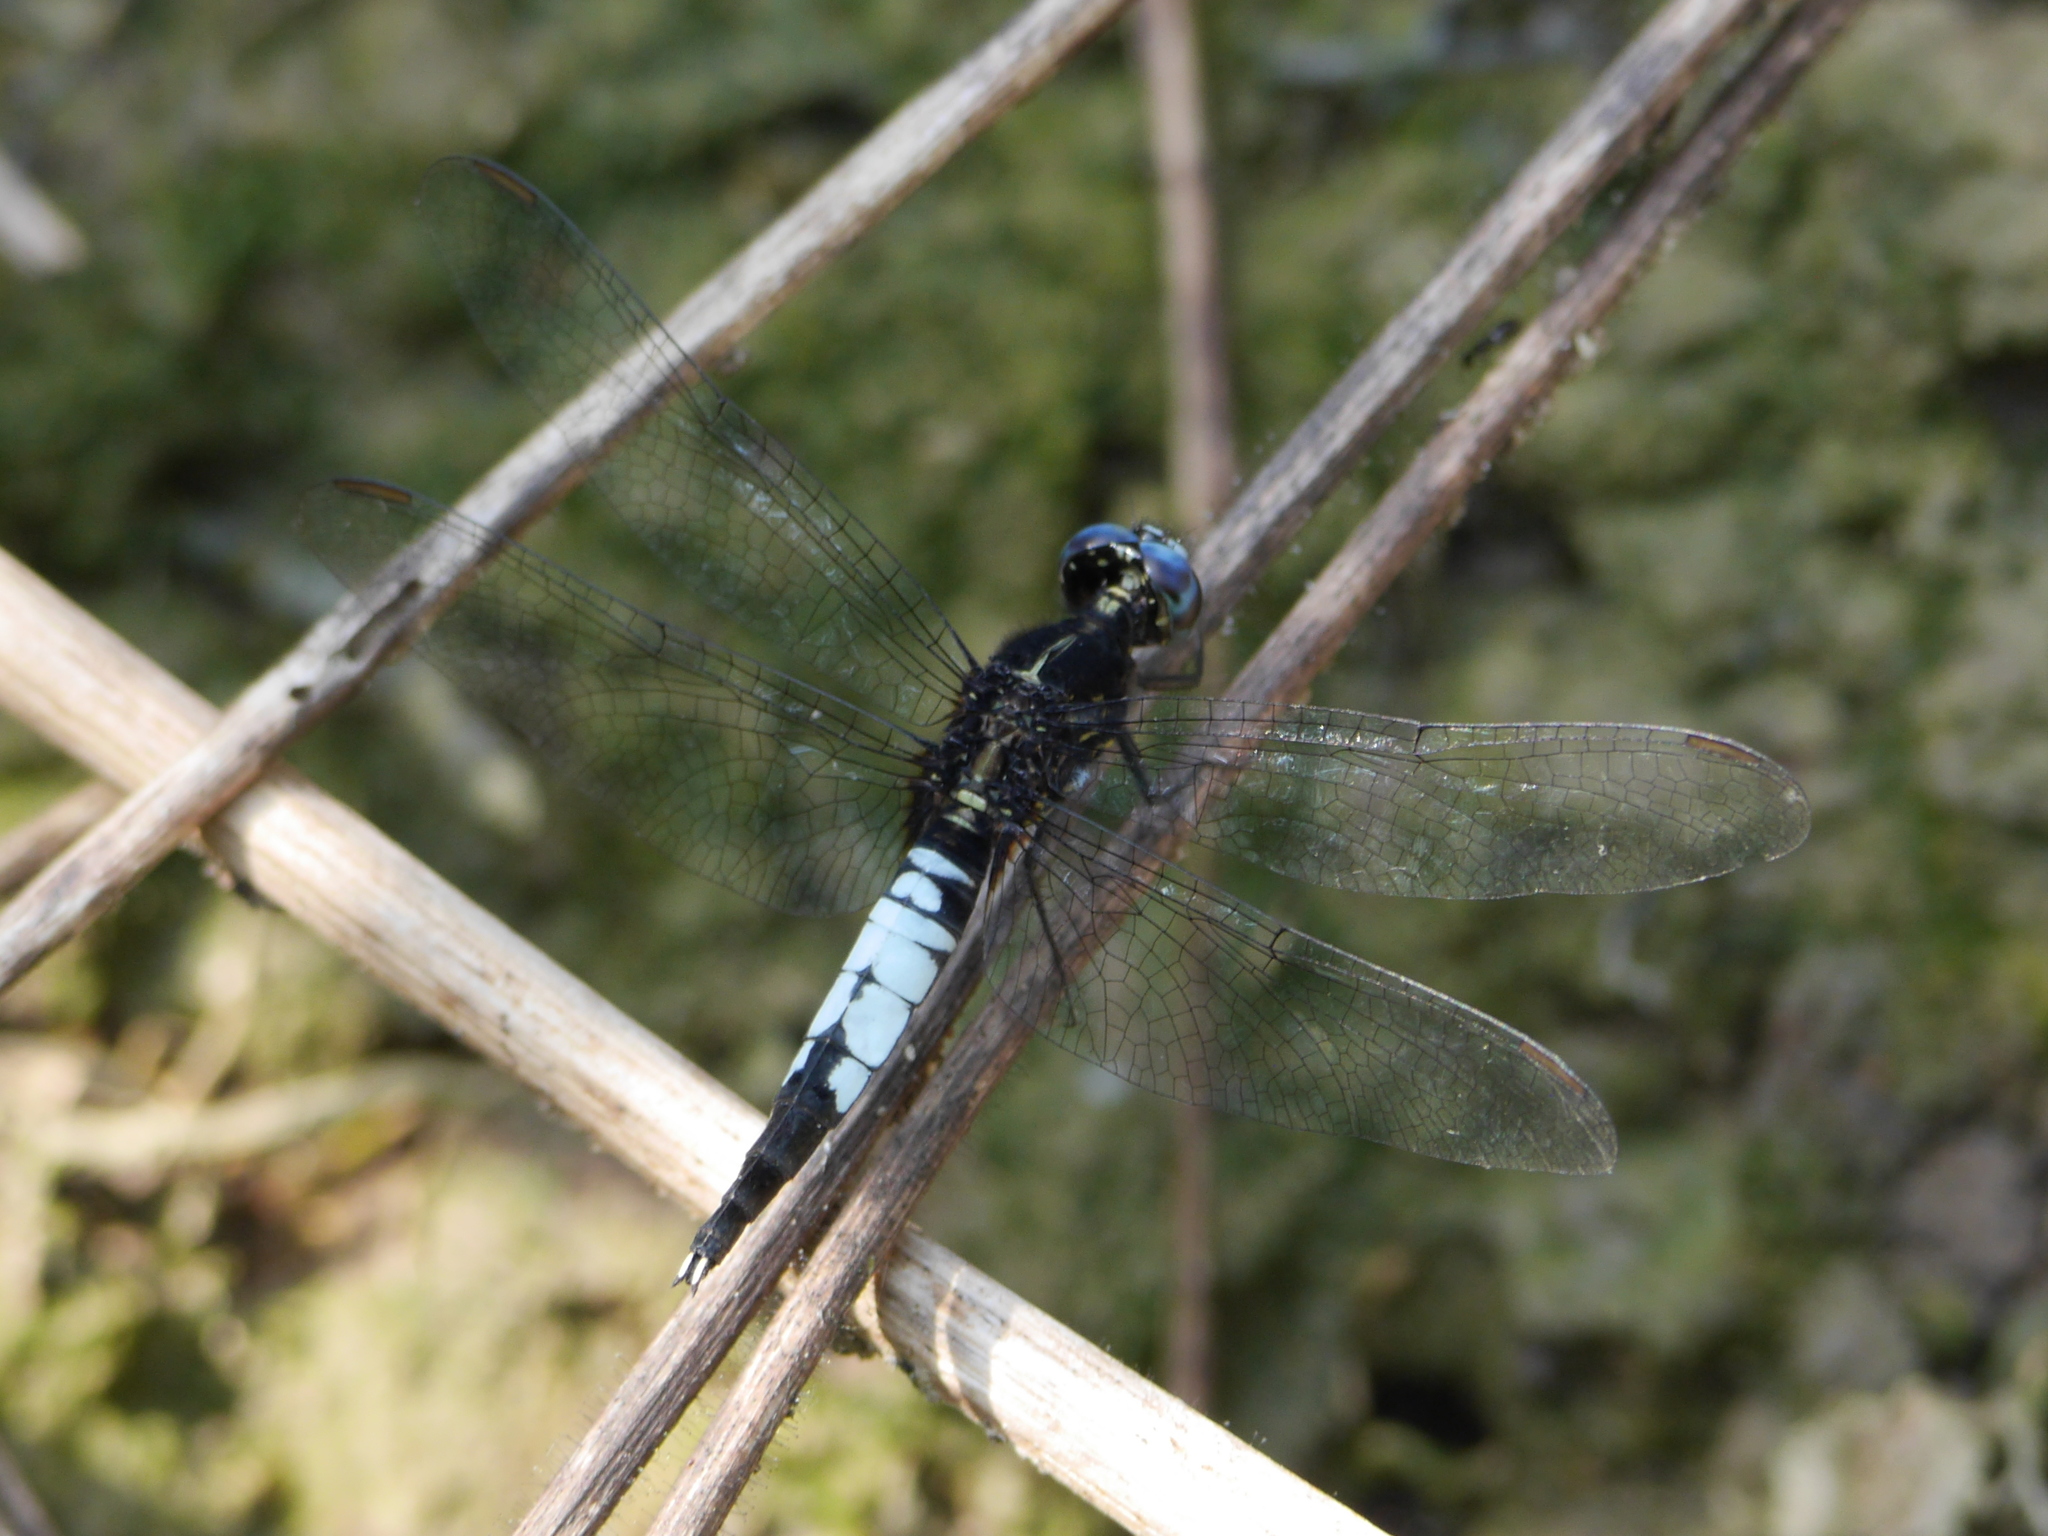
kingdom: Animalia
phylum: Arthropoda
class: Insecta
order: Odonata
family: Libellulidae
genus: Acisoma
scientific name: Acisoma trifidum
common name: Ivory pintail
